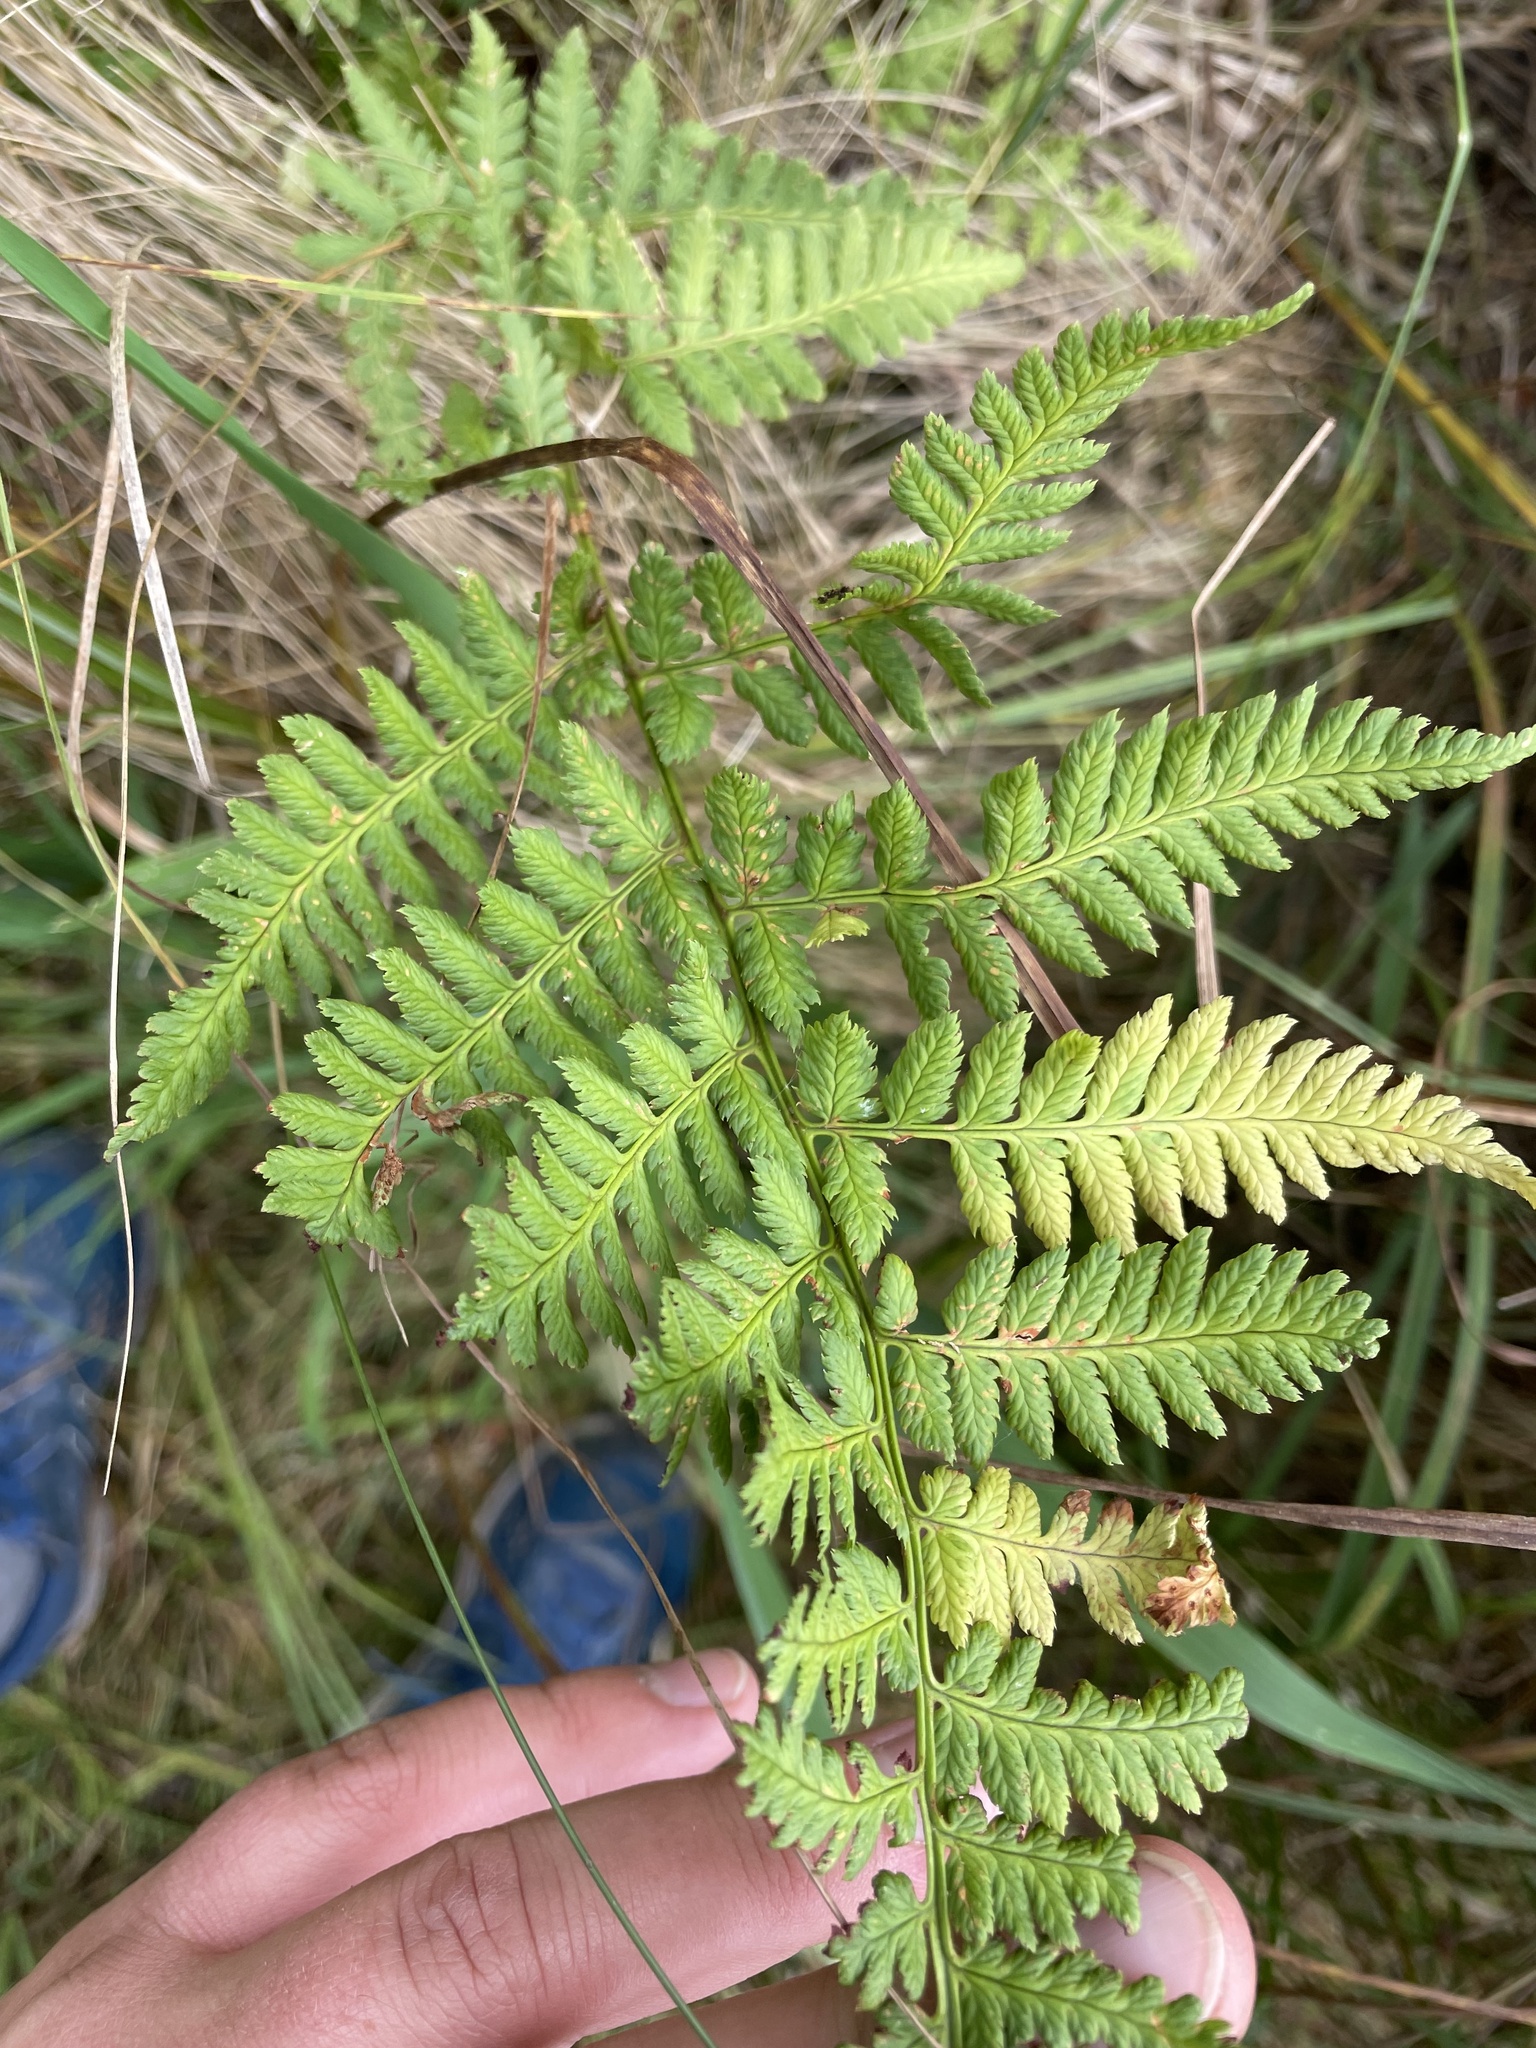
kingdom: Plantae
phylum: Tracheophyta
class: Polypodiopsida
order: Polypodiales
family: Dryopteridaceae
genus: Dryopteris
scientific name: Dryopteris carthusiana
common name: Narrow buckler-fern
